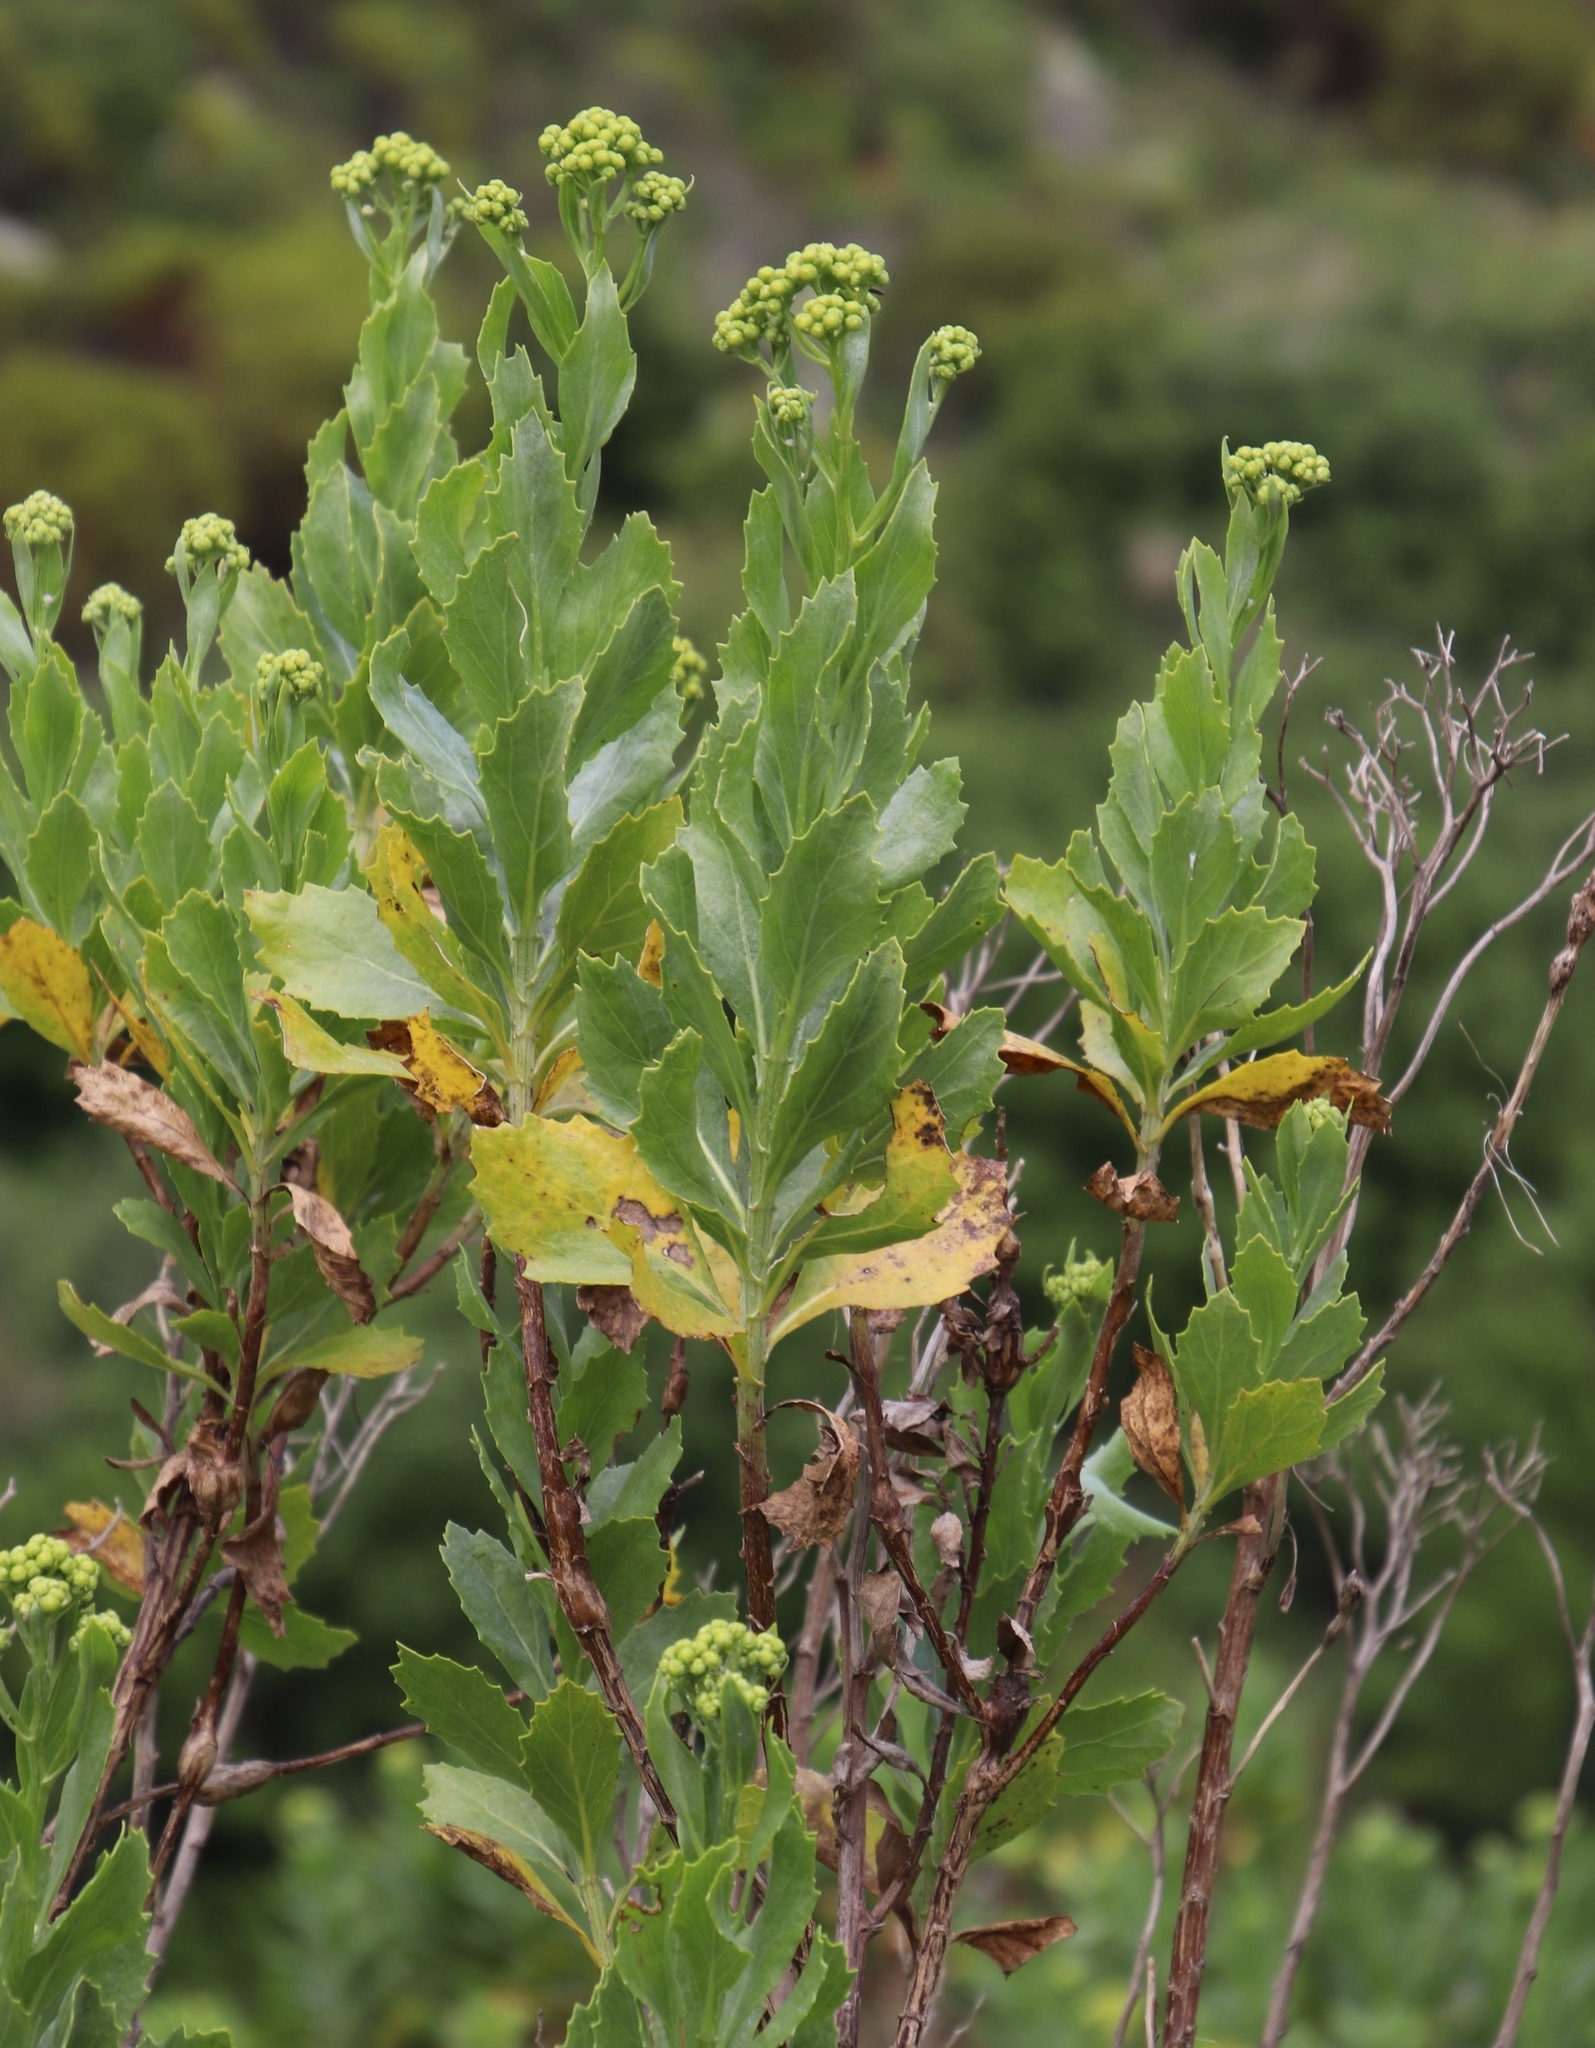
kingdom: Plantae
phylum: Tracheophyta
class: Magnoliopsida
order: Asterales
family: Asteraceae
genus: Senecio
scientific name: Senecio halimifolius
